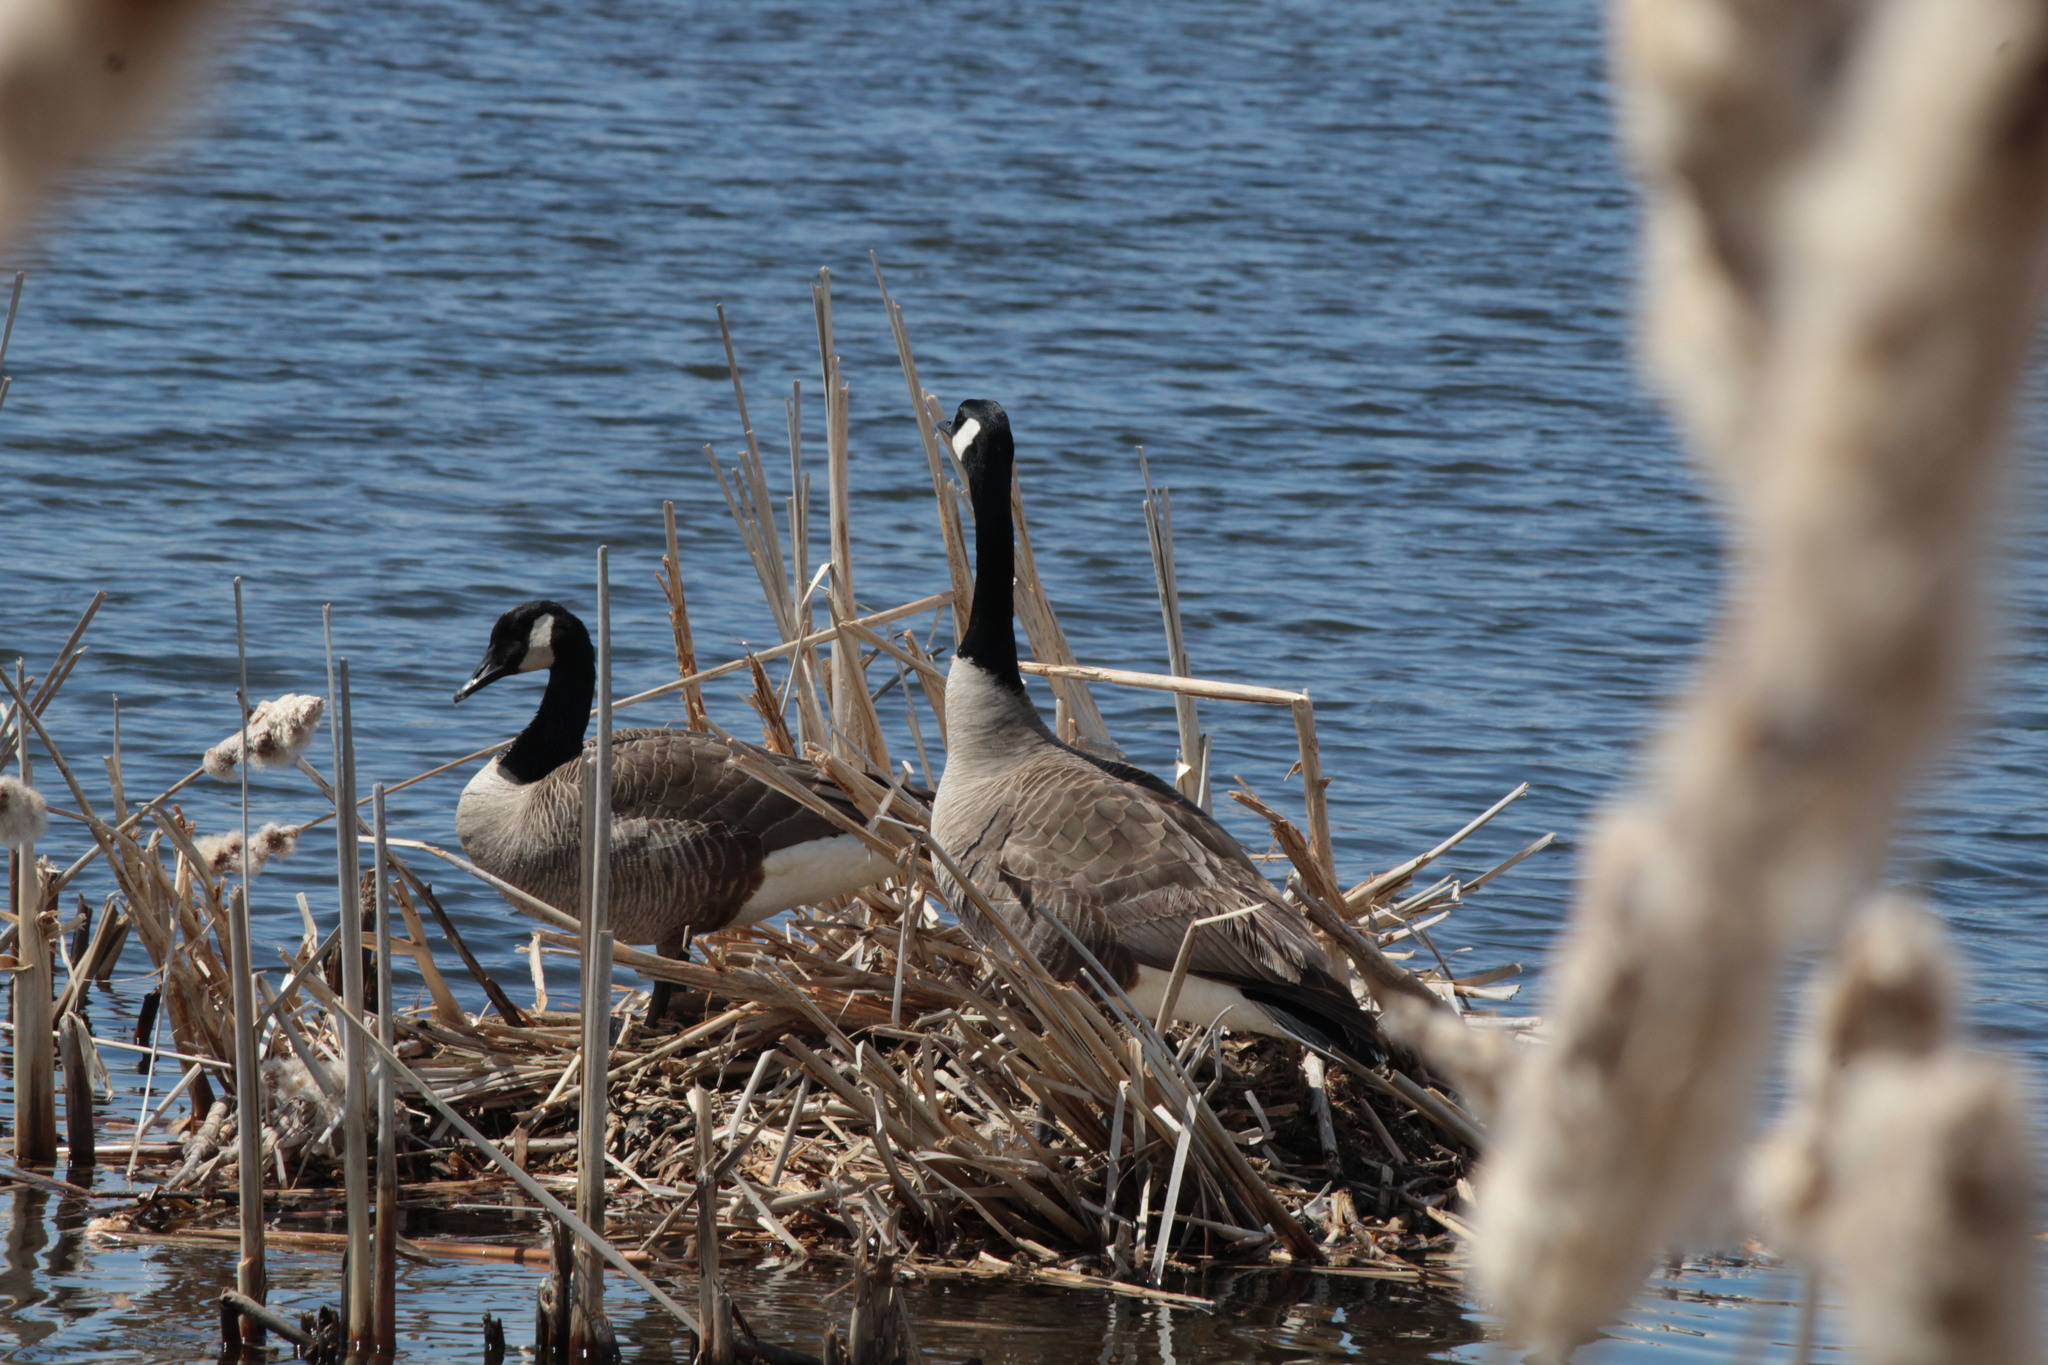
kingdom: Animalia
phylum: Chordata
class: Aves
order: Anseriformes
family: Anatidae
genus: Branta
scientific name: Branta canadensis
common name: Canada goose
